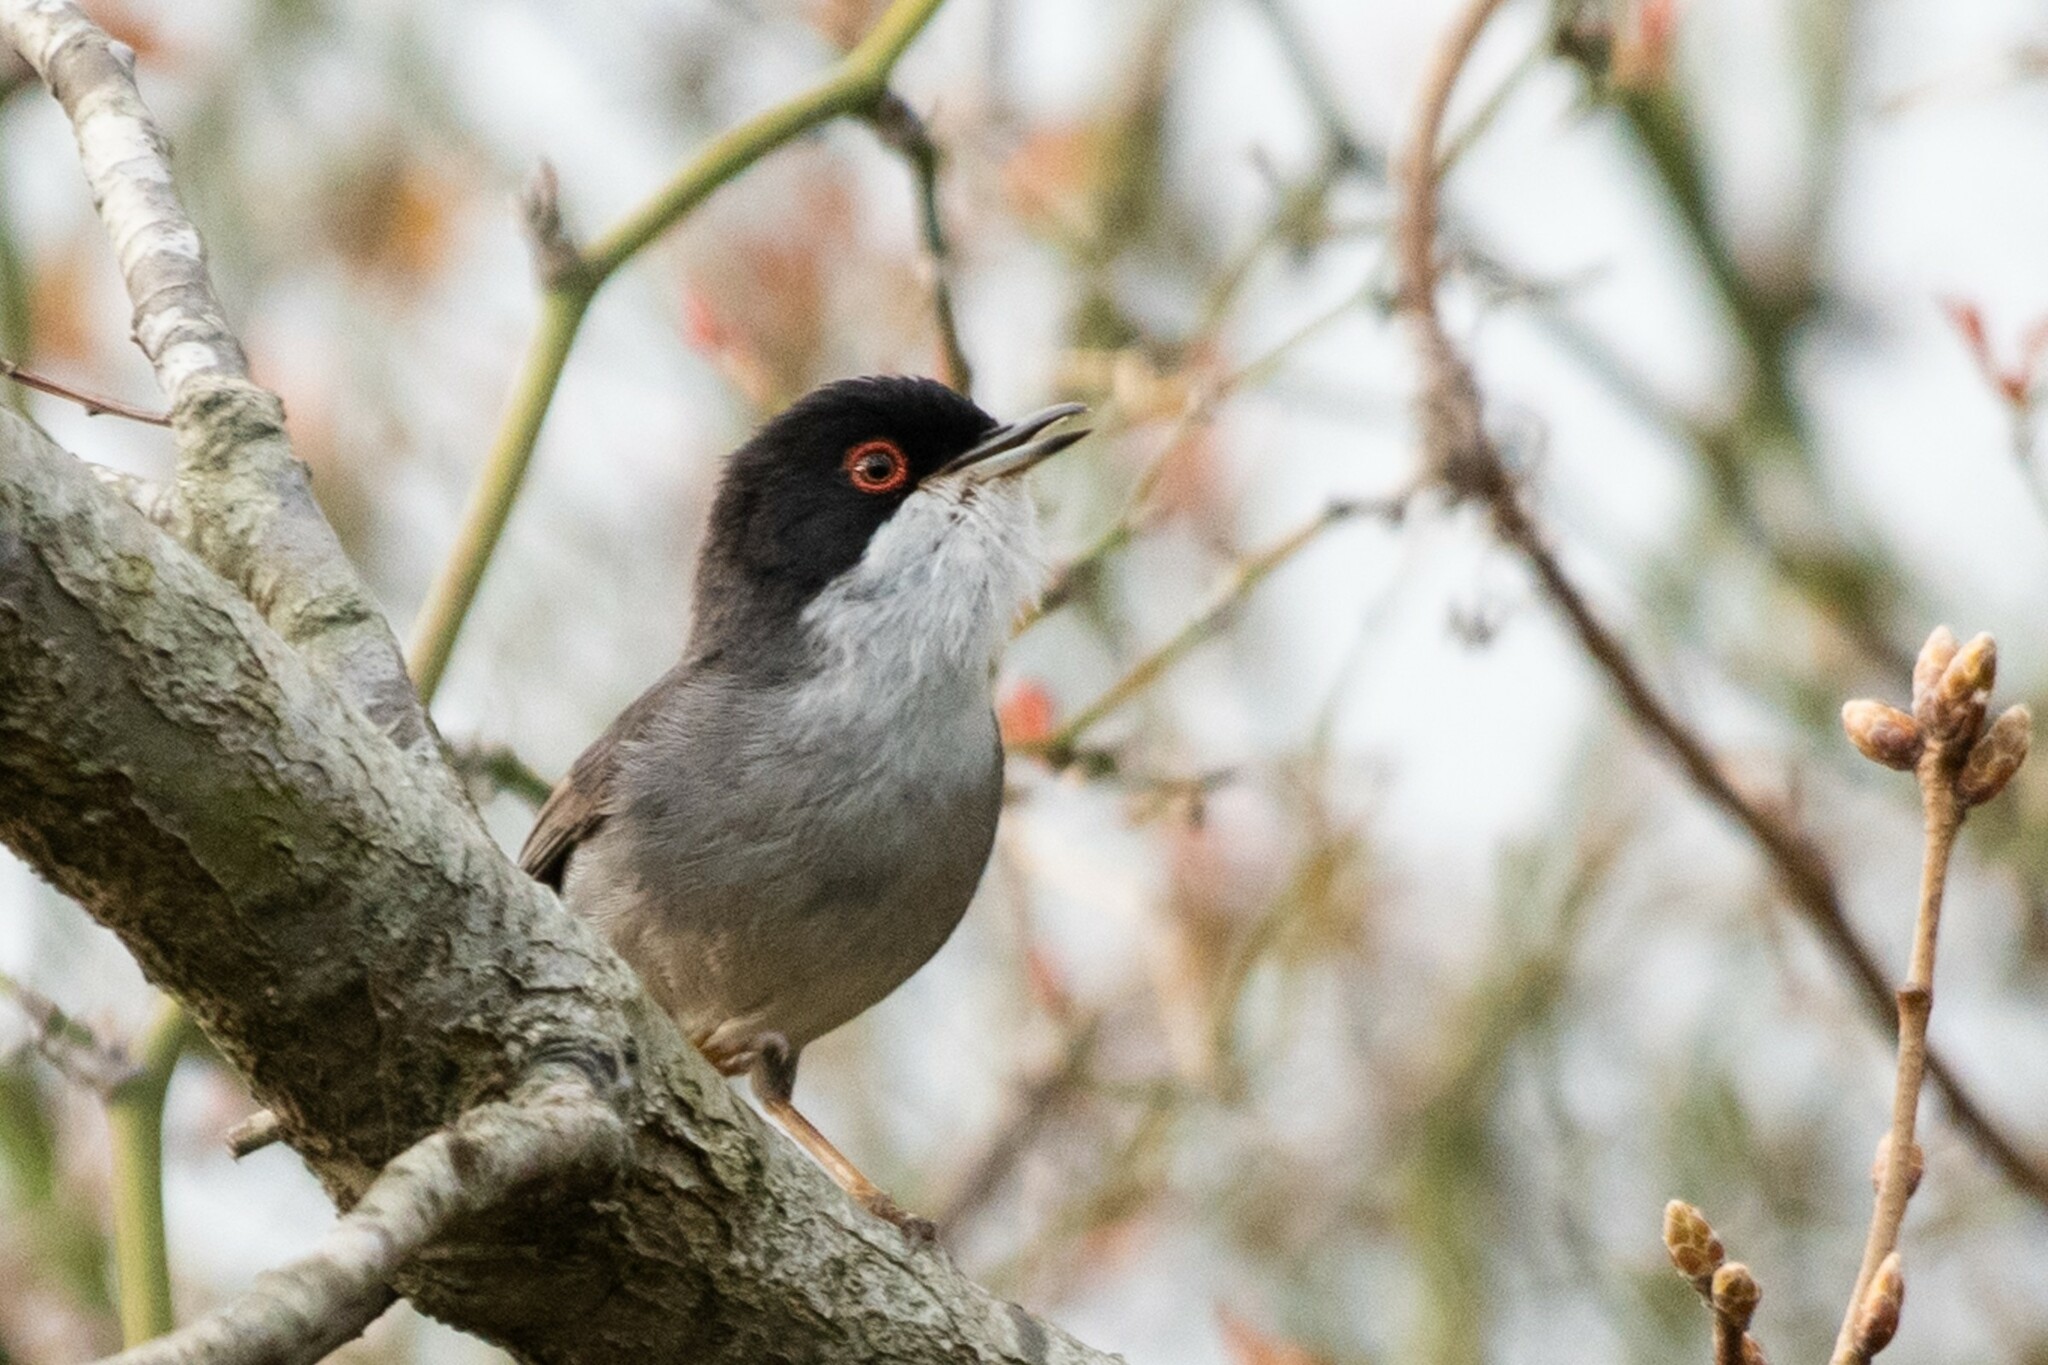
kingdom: Animalia
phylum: Chordata
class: Aves
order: Passeriformes
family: Sylviidae
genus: Curruca
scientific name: Curruca melanocephala
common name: Sardinian warbler
